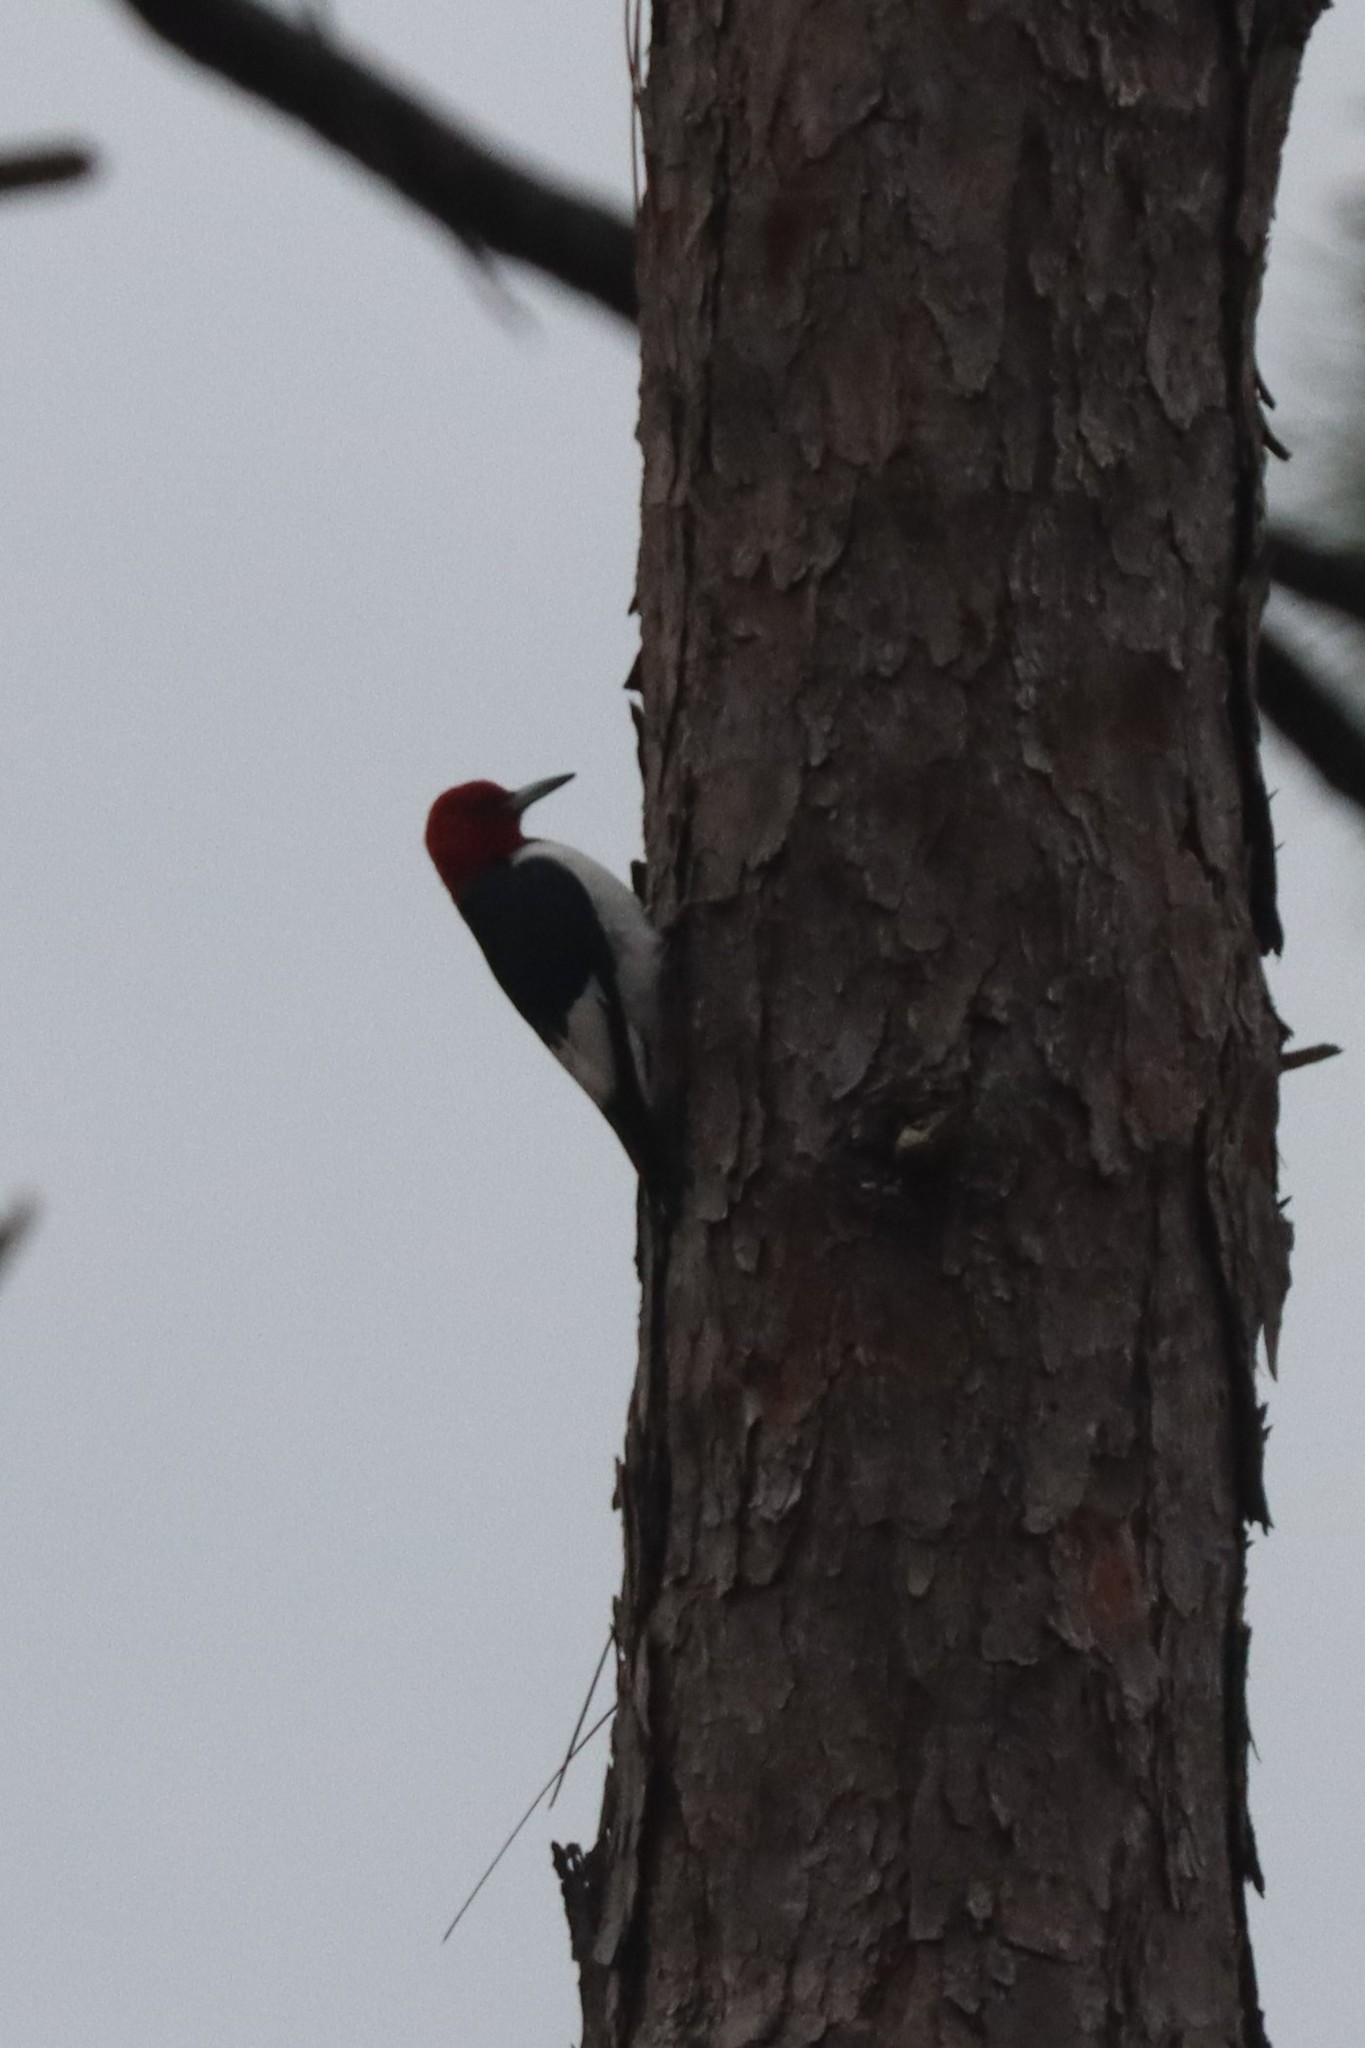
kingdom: Animalia
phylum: Chordata
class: Aves
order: Piciformes
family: Picidae
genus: Melanerpes
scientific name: Melanerpes erythrocephalus
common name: Red-headed woodpecker
